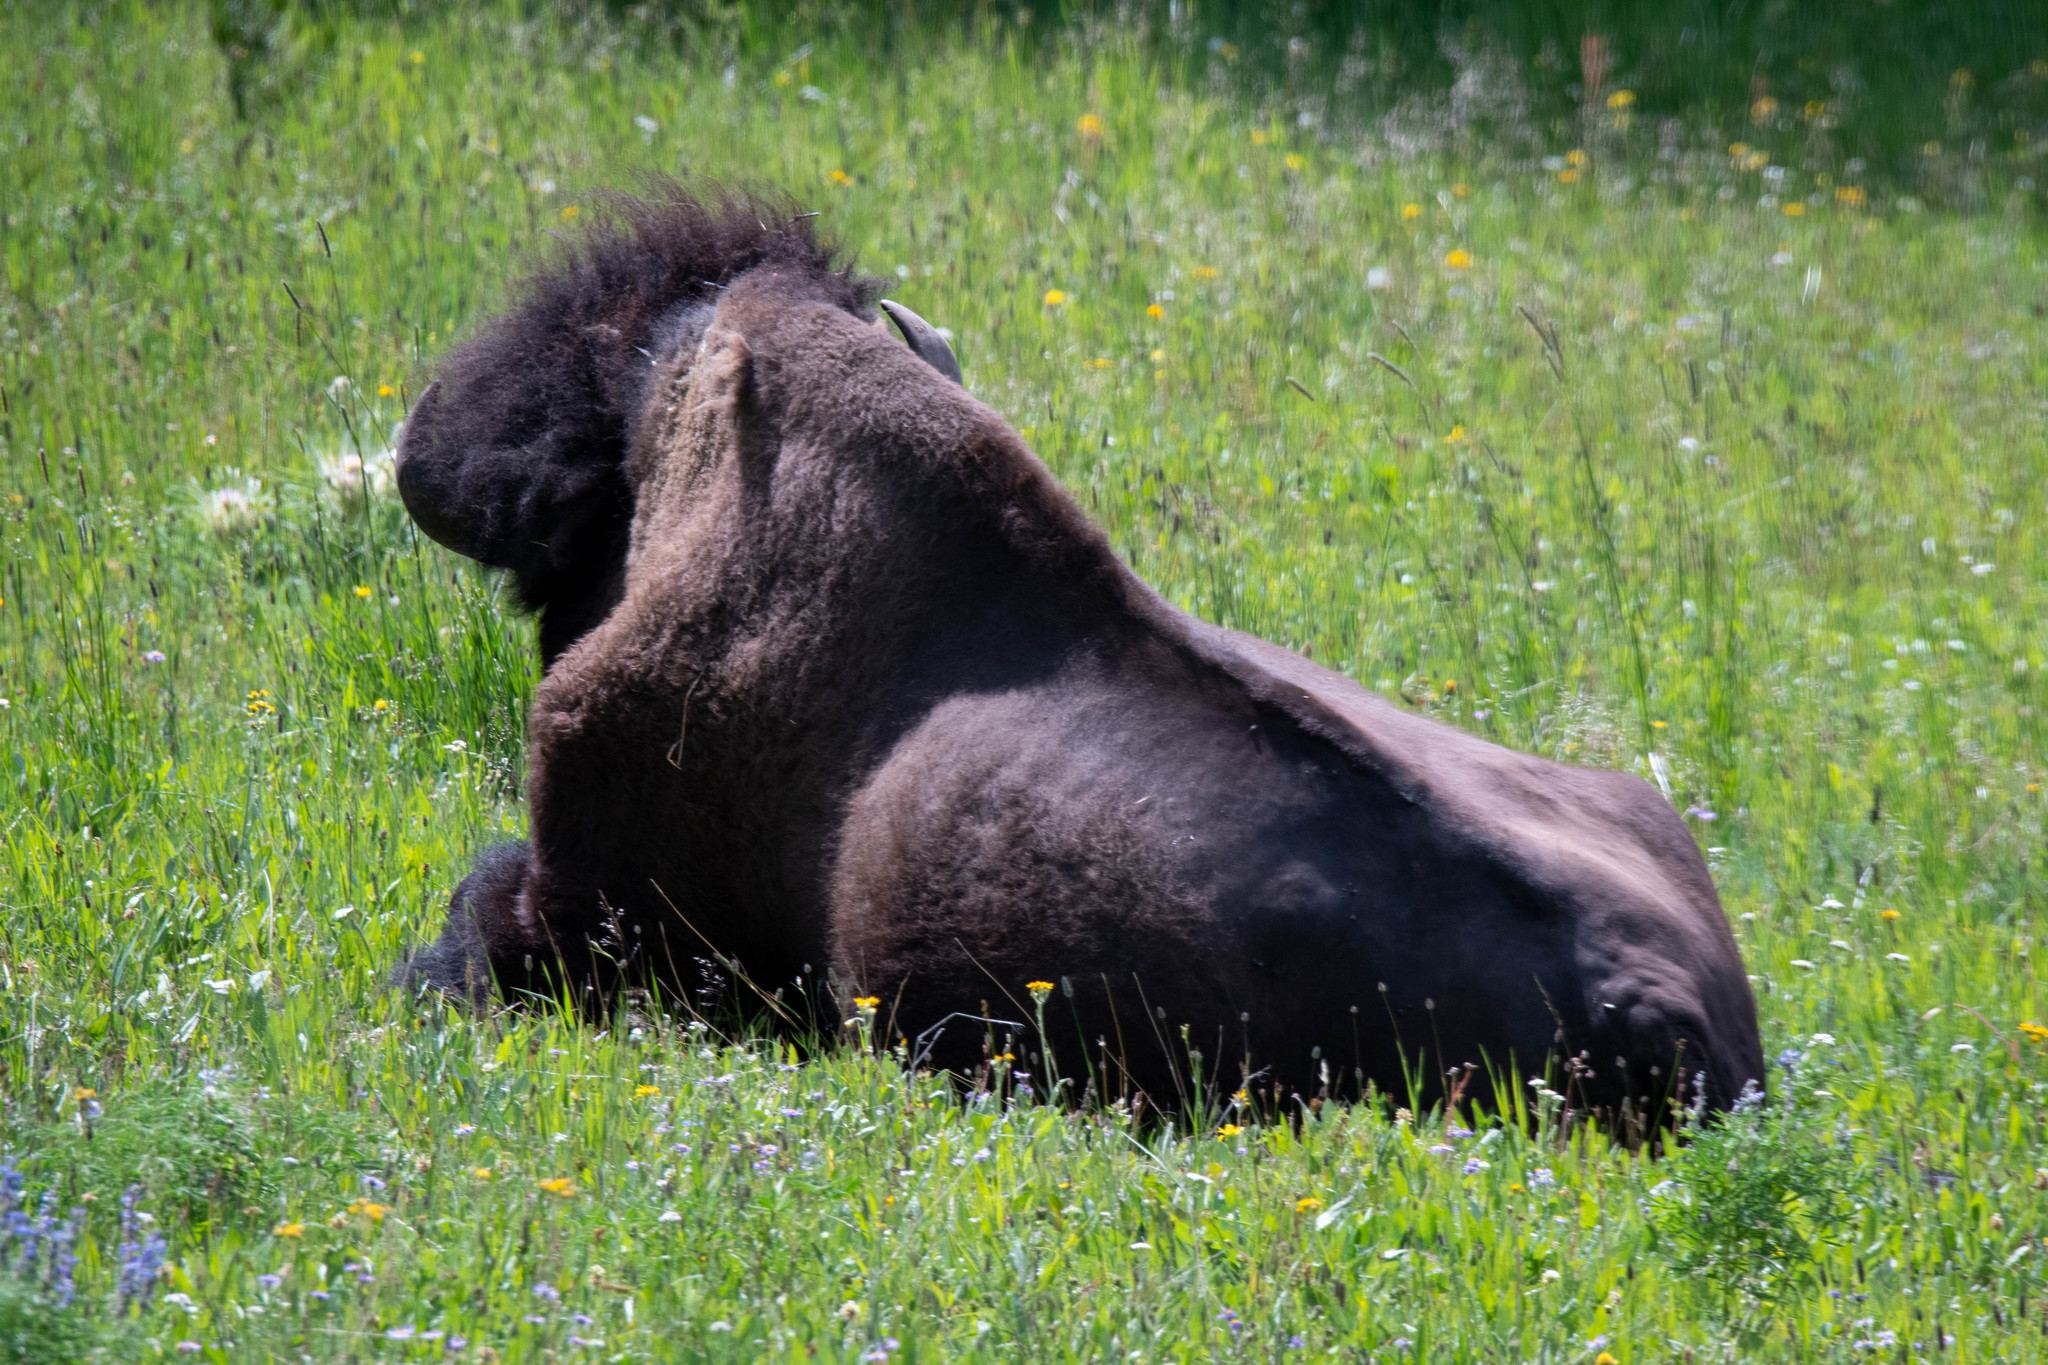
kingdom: Animalia
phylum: Chordata
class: Mammalia
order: Artiodactyla
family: Bovidae
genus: Bison
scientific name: Bison bison
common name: American bison
